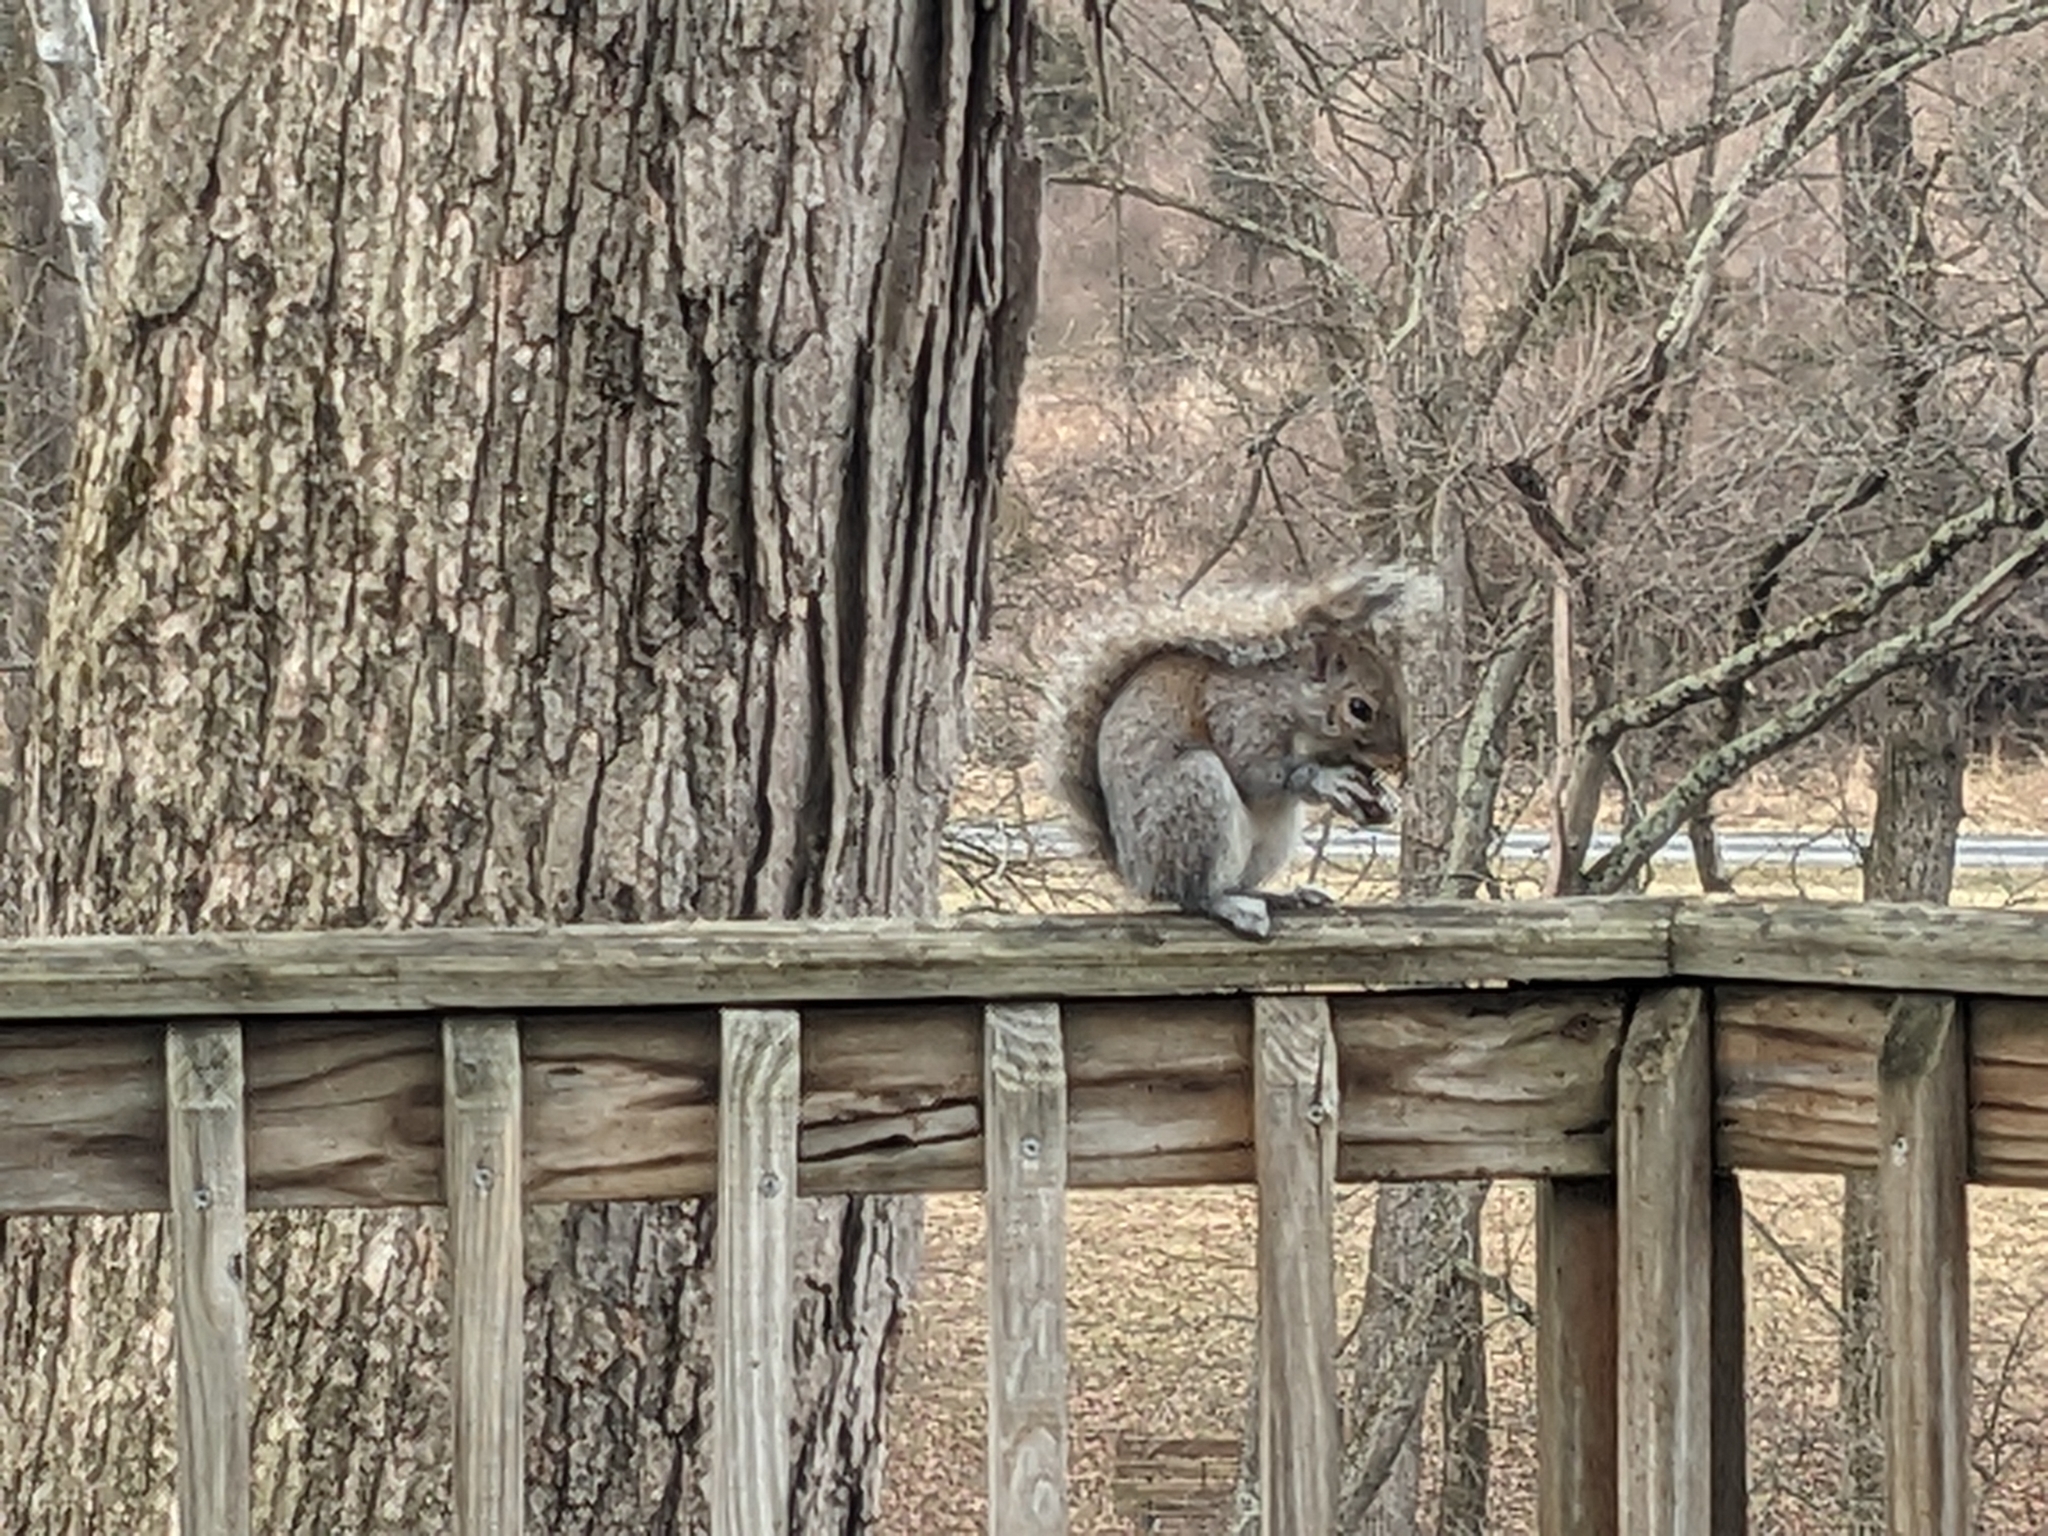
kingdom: Animalia
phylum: Chordata
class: Mammalia
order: Rodentia
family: Sciuridae
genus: Sciurus
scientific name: Sciurus carolinensis
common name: Eastern gray squirrel
